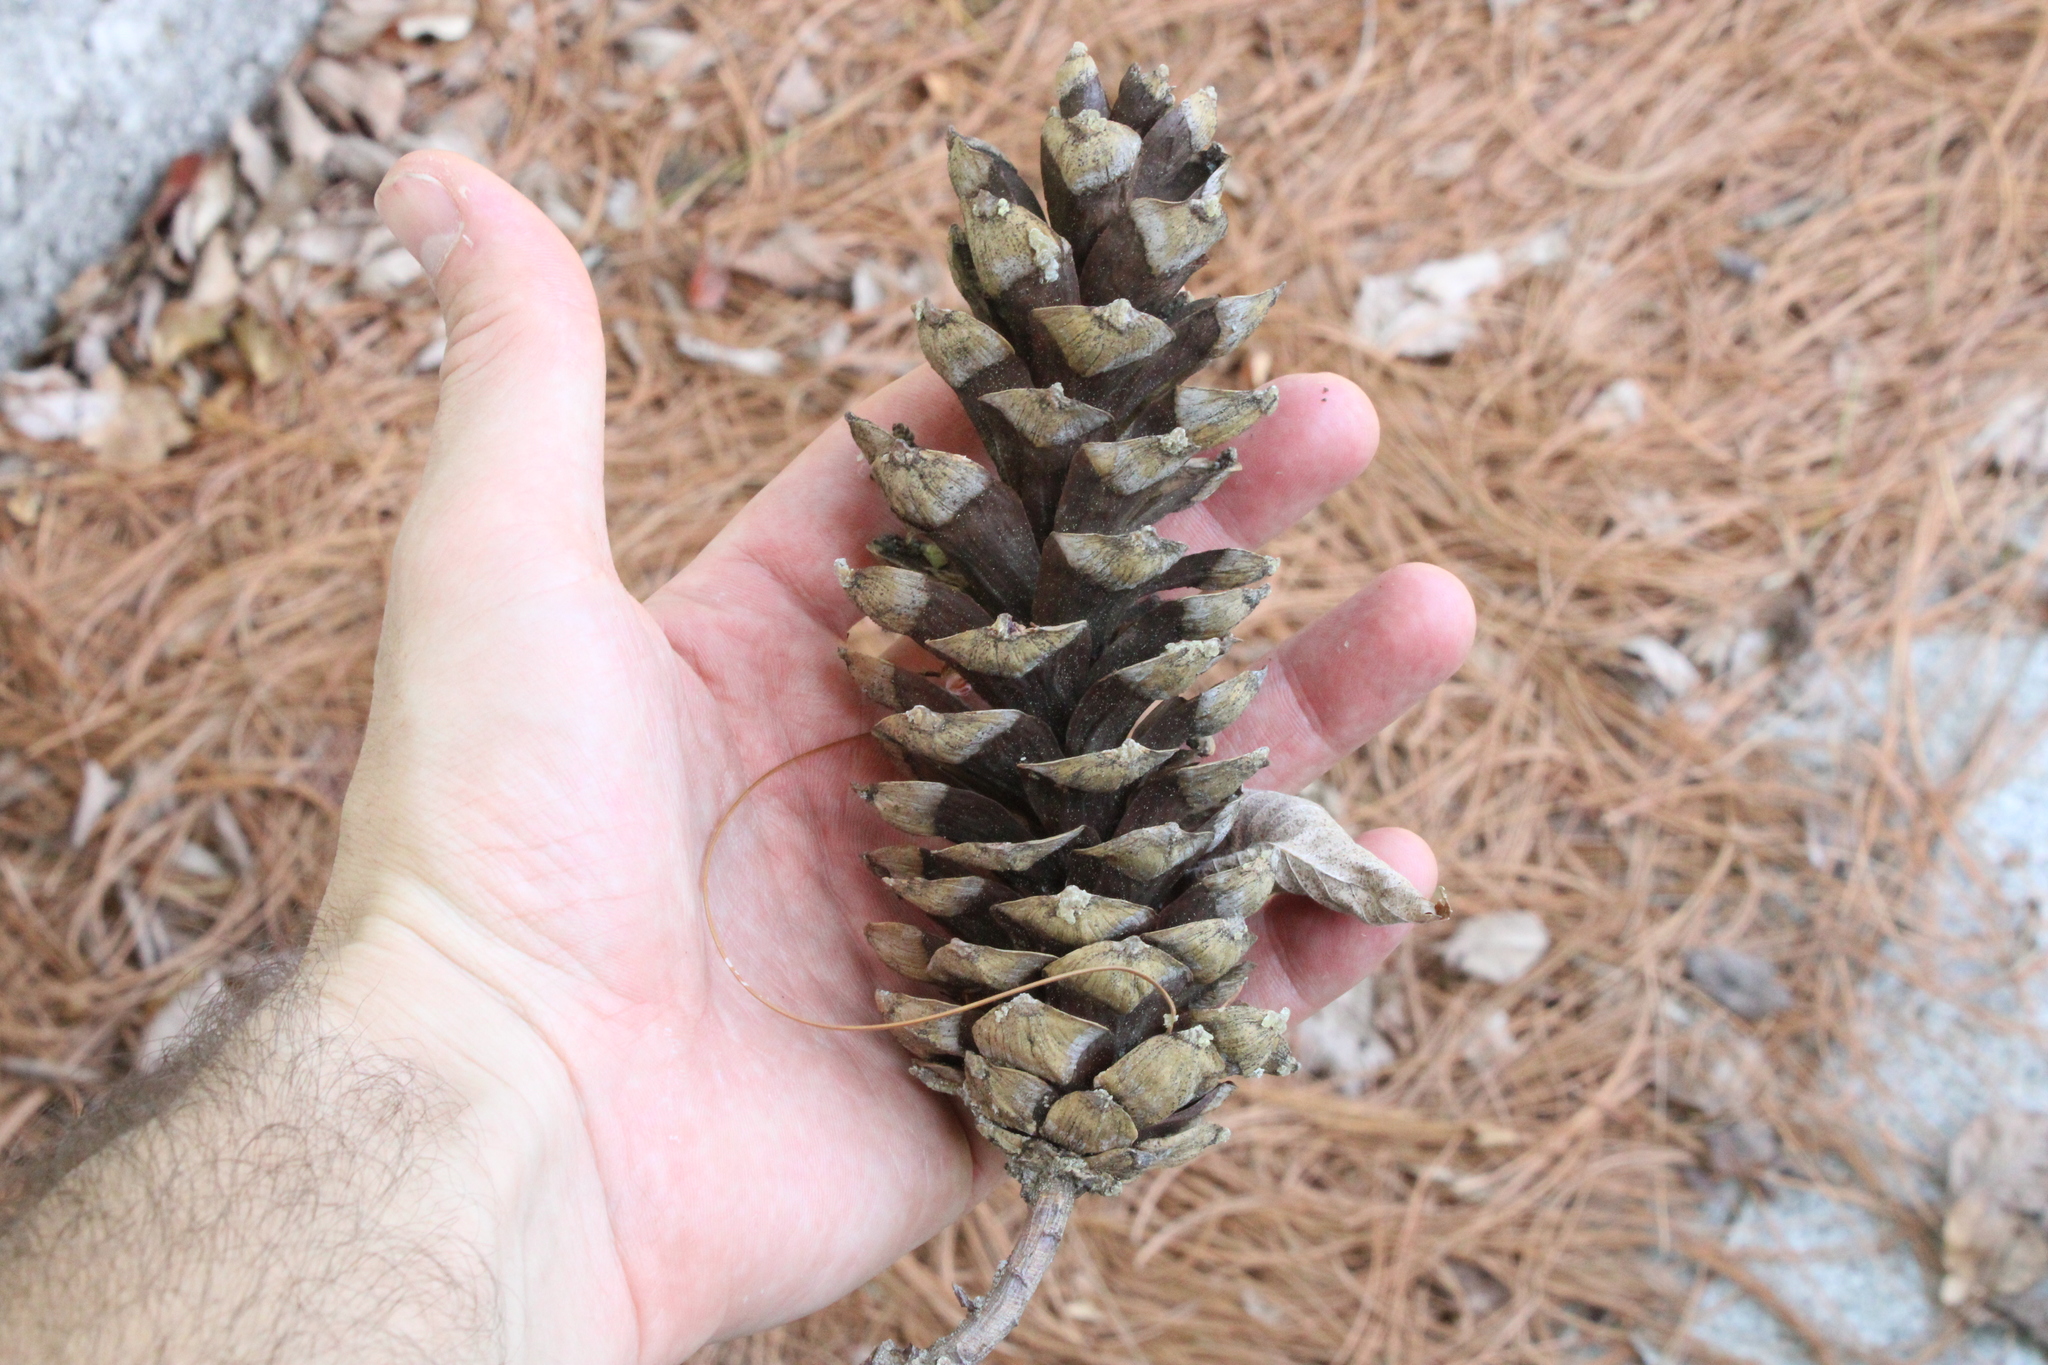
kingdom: Plantae
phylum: Tracheophyta
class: Pinopsida
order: Pinales
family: Pinaceae
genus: Pinus
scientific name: Pinus strobus
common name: Weymouth pine
